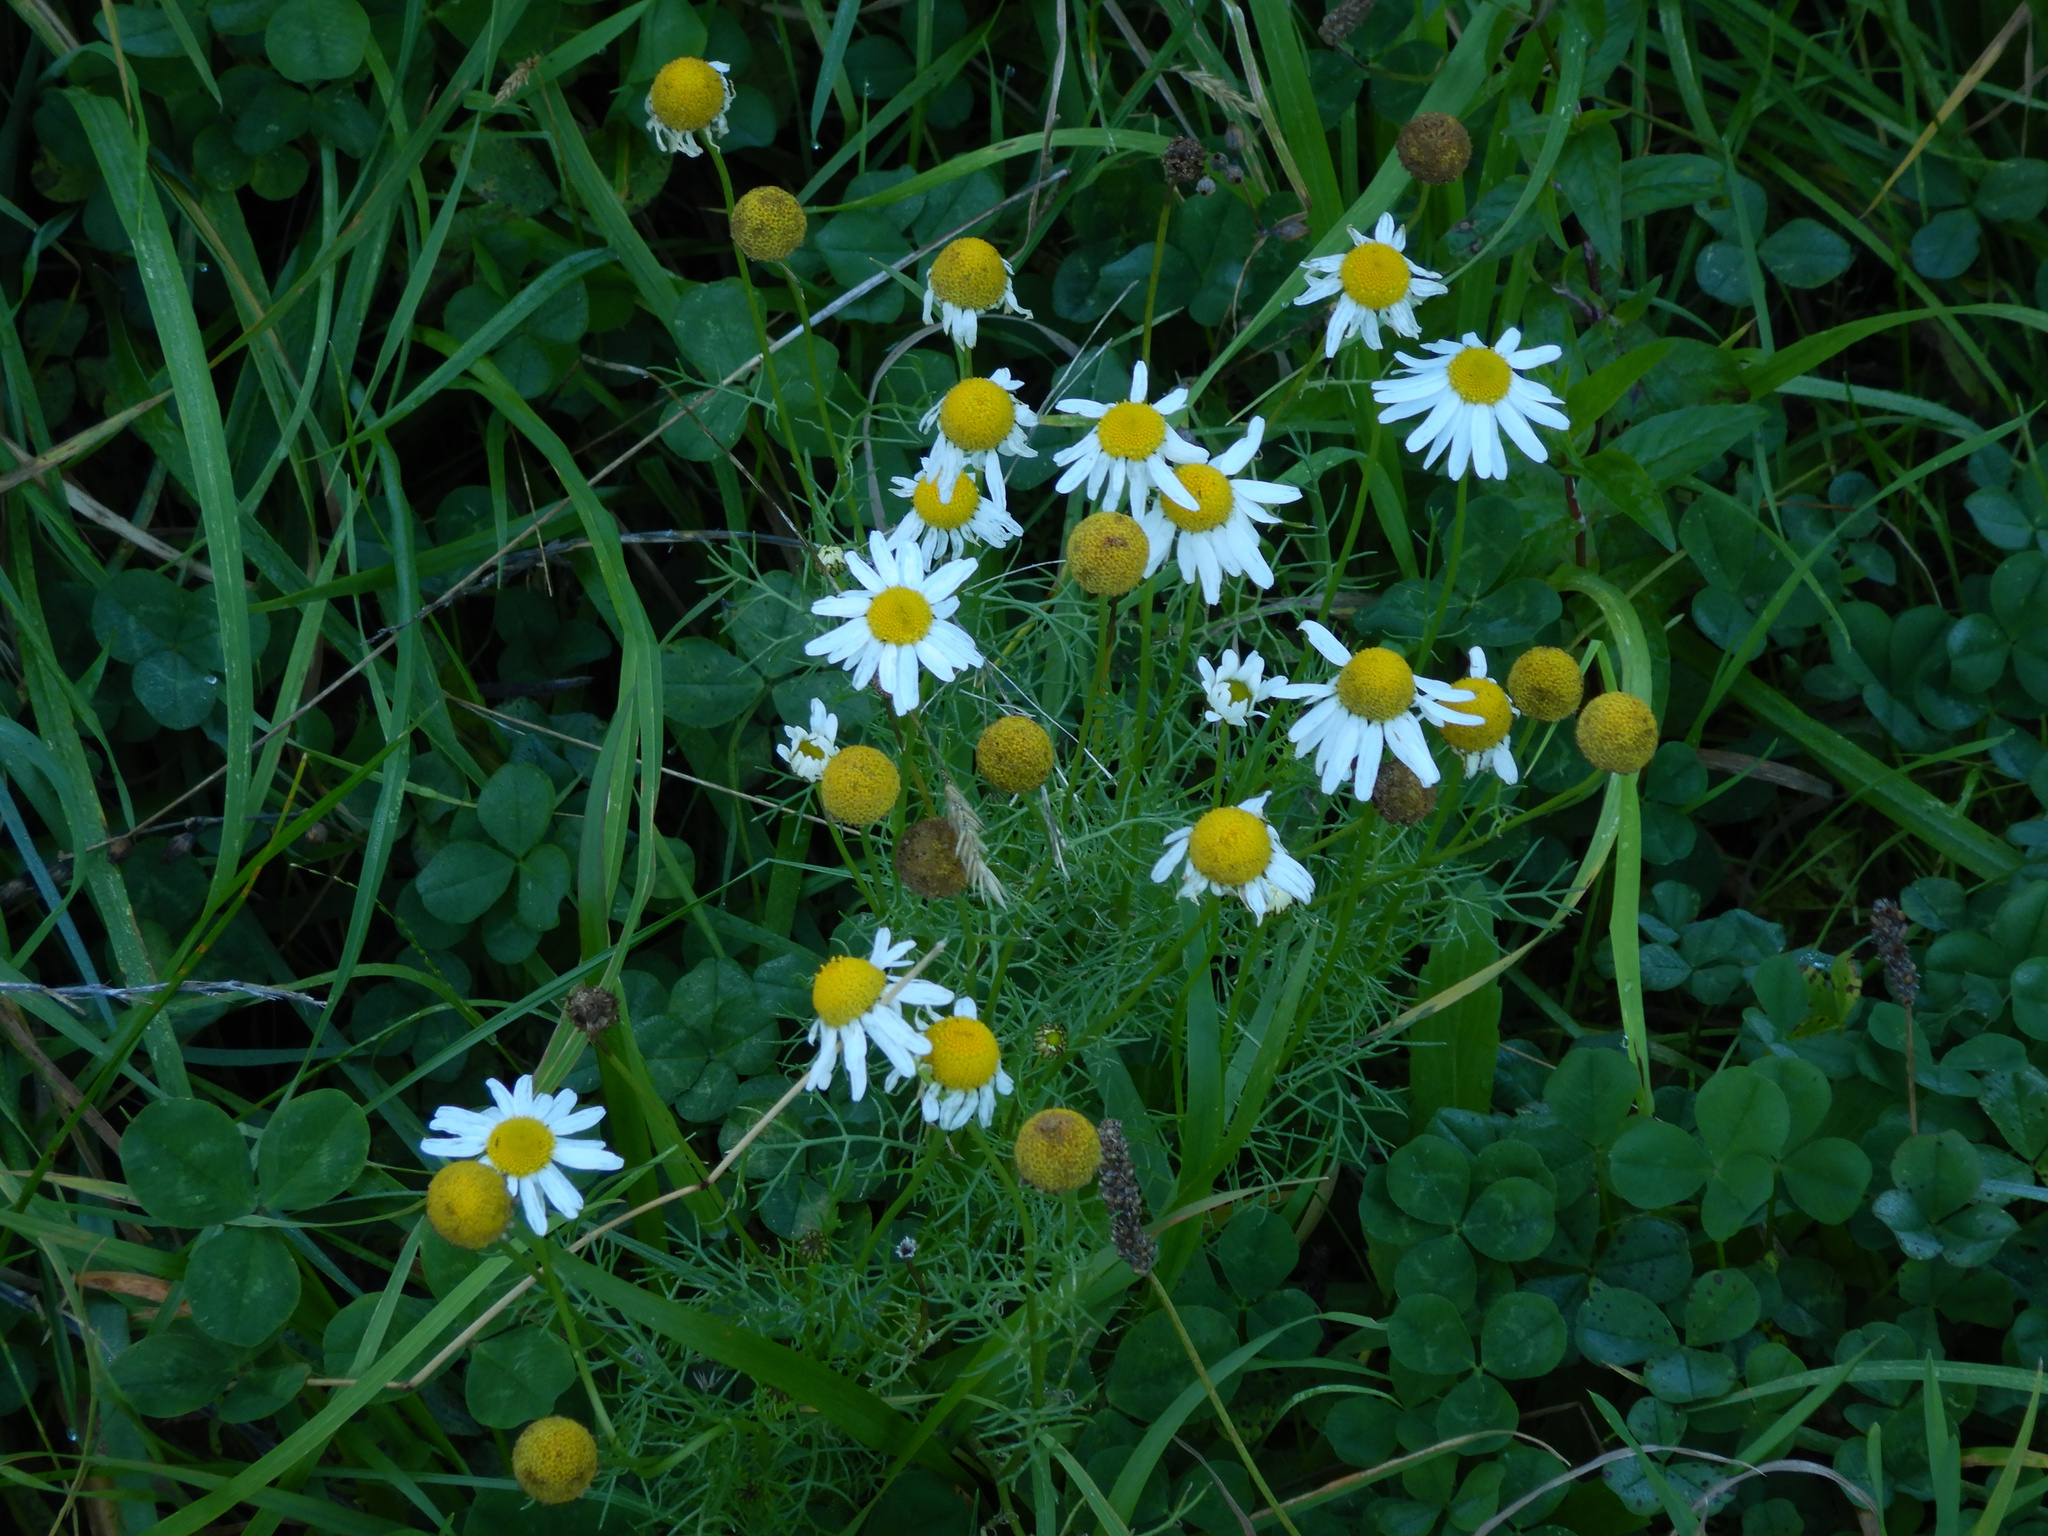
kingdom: Plantae
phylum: Tracheophyta
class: Magnoliopsida
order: Asterales
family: Asteraceae
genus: Tripleurospermum
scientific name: Tripleurospermum inodorum
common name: Scentless mayweed
